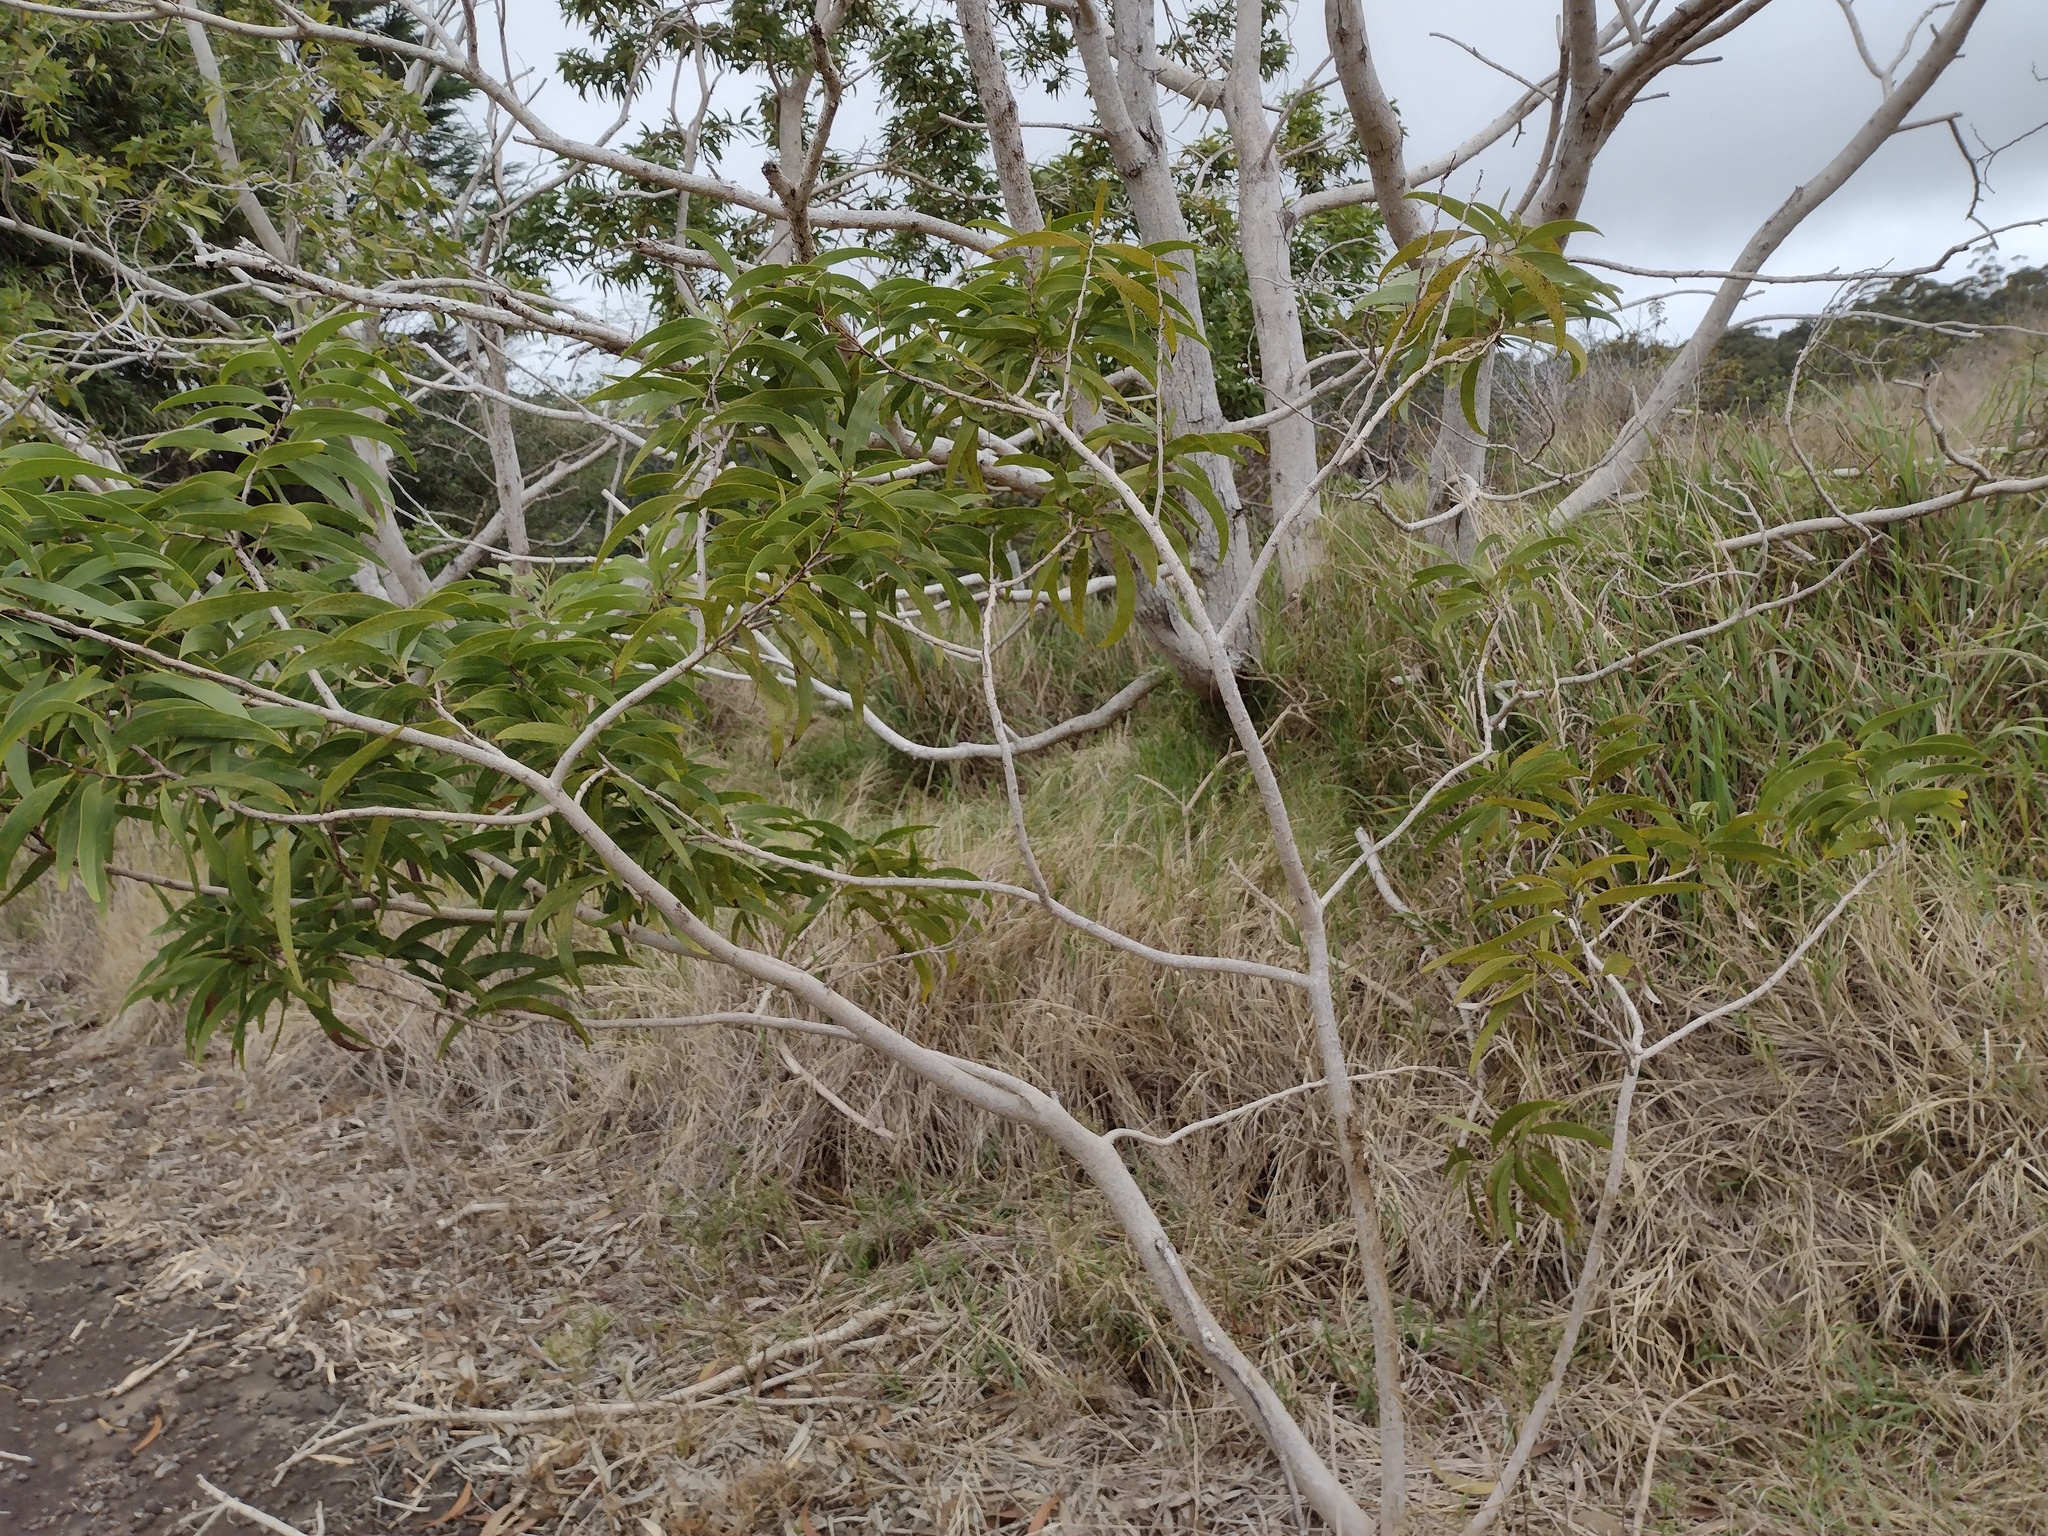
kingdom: Plantae
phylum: Tracheophyta
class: Magnoliopsida
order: Fabales
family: Fabaceae
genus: Acacia
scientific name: Acacia koa
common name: Gray koa
